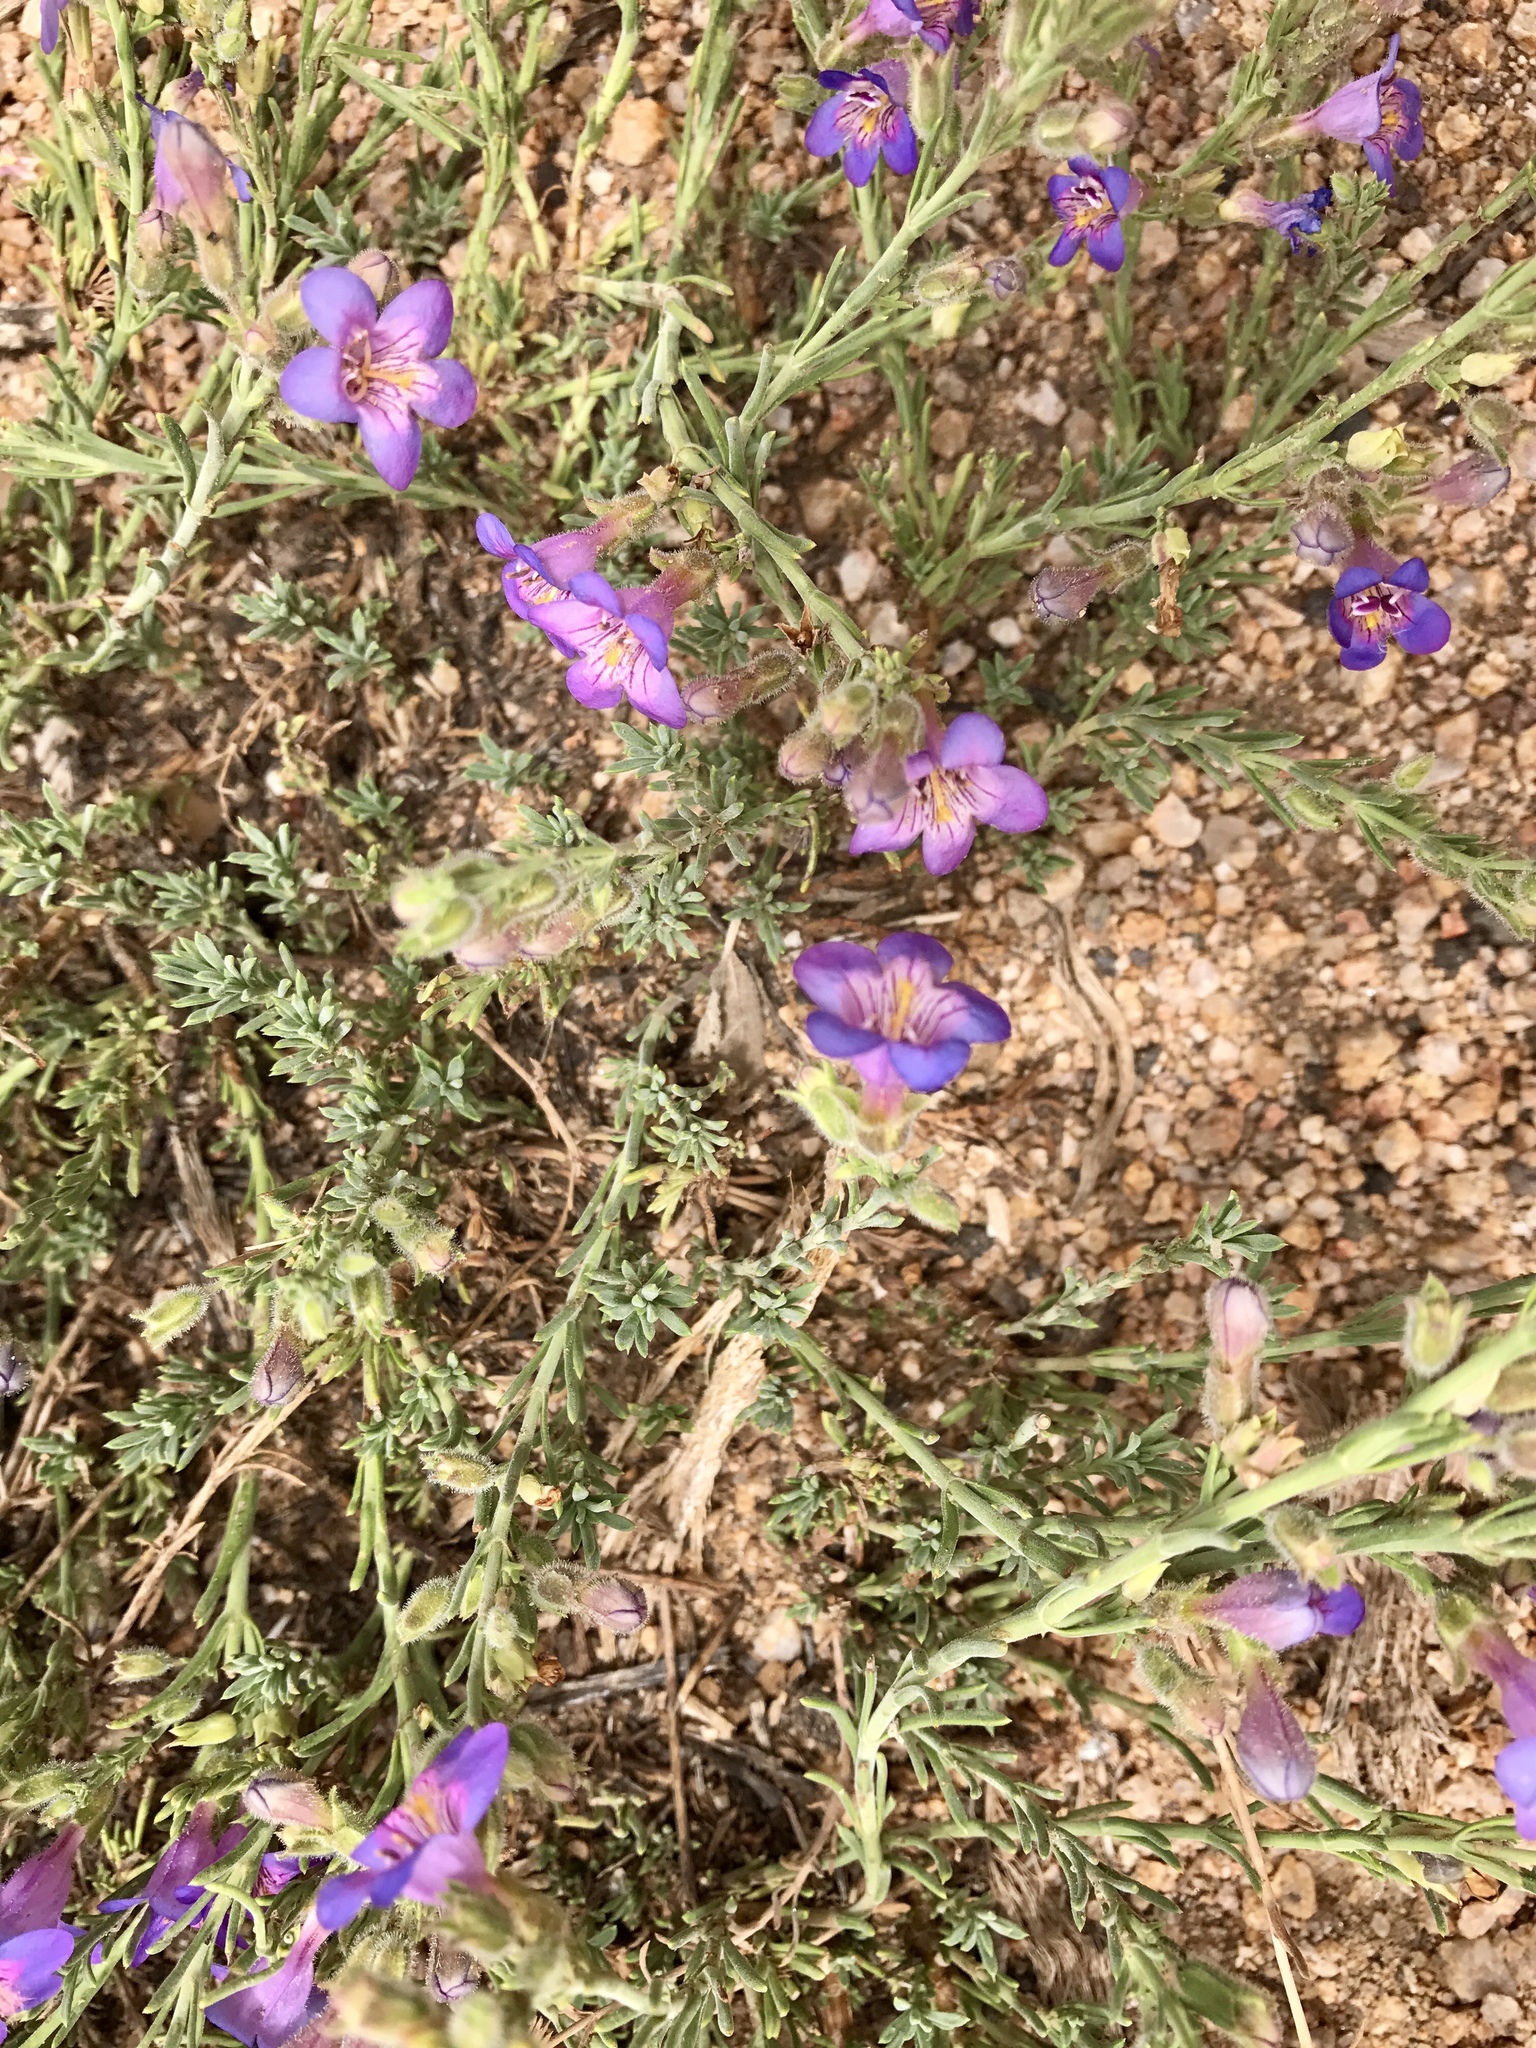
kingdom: Plantae
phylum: Tracheophyta
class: Magnoliopsida
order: Lamiales
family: Plantaginaceae
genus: Penstemon
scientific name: Penstemon linarioides
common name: Siler's penstemon
